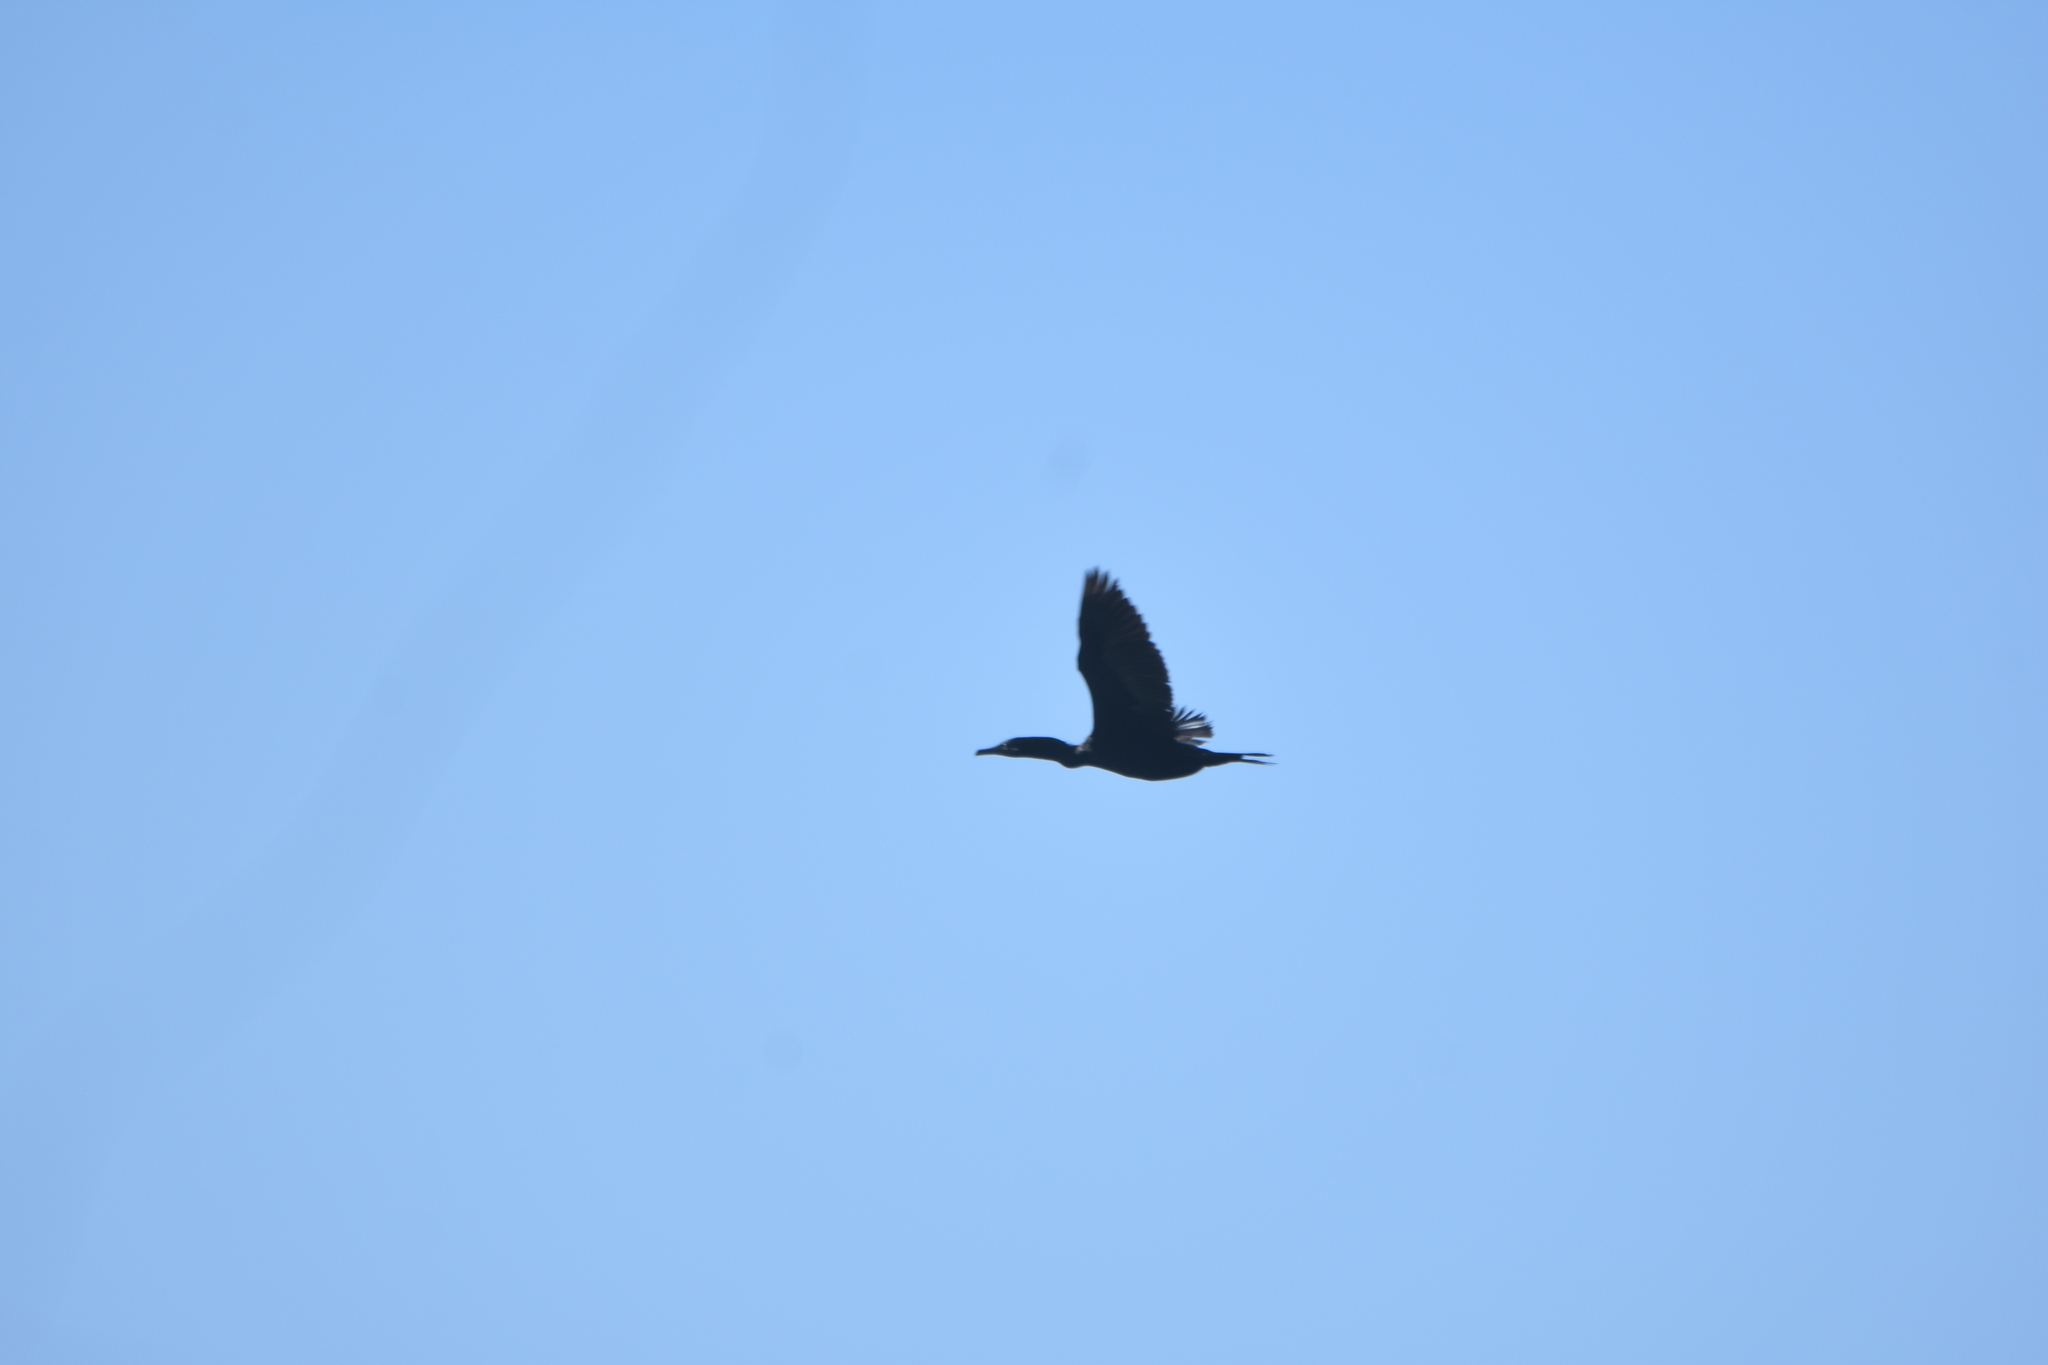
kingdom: Animalia
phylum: Chordata
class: Aves
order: Suliformes
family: Phalacrocoracidae
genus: Phalacrocorax
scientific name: Phalacrocorax brasilianus
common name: Neotropic cormorant
